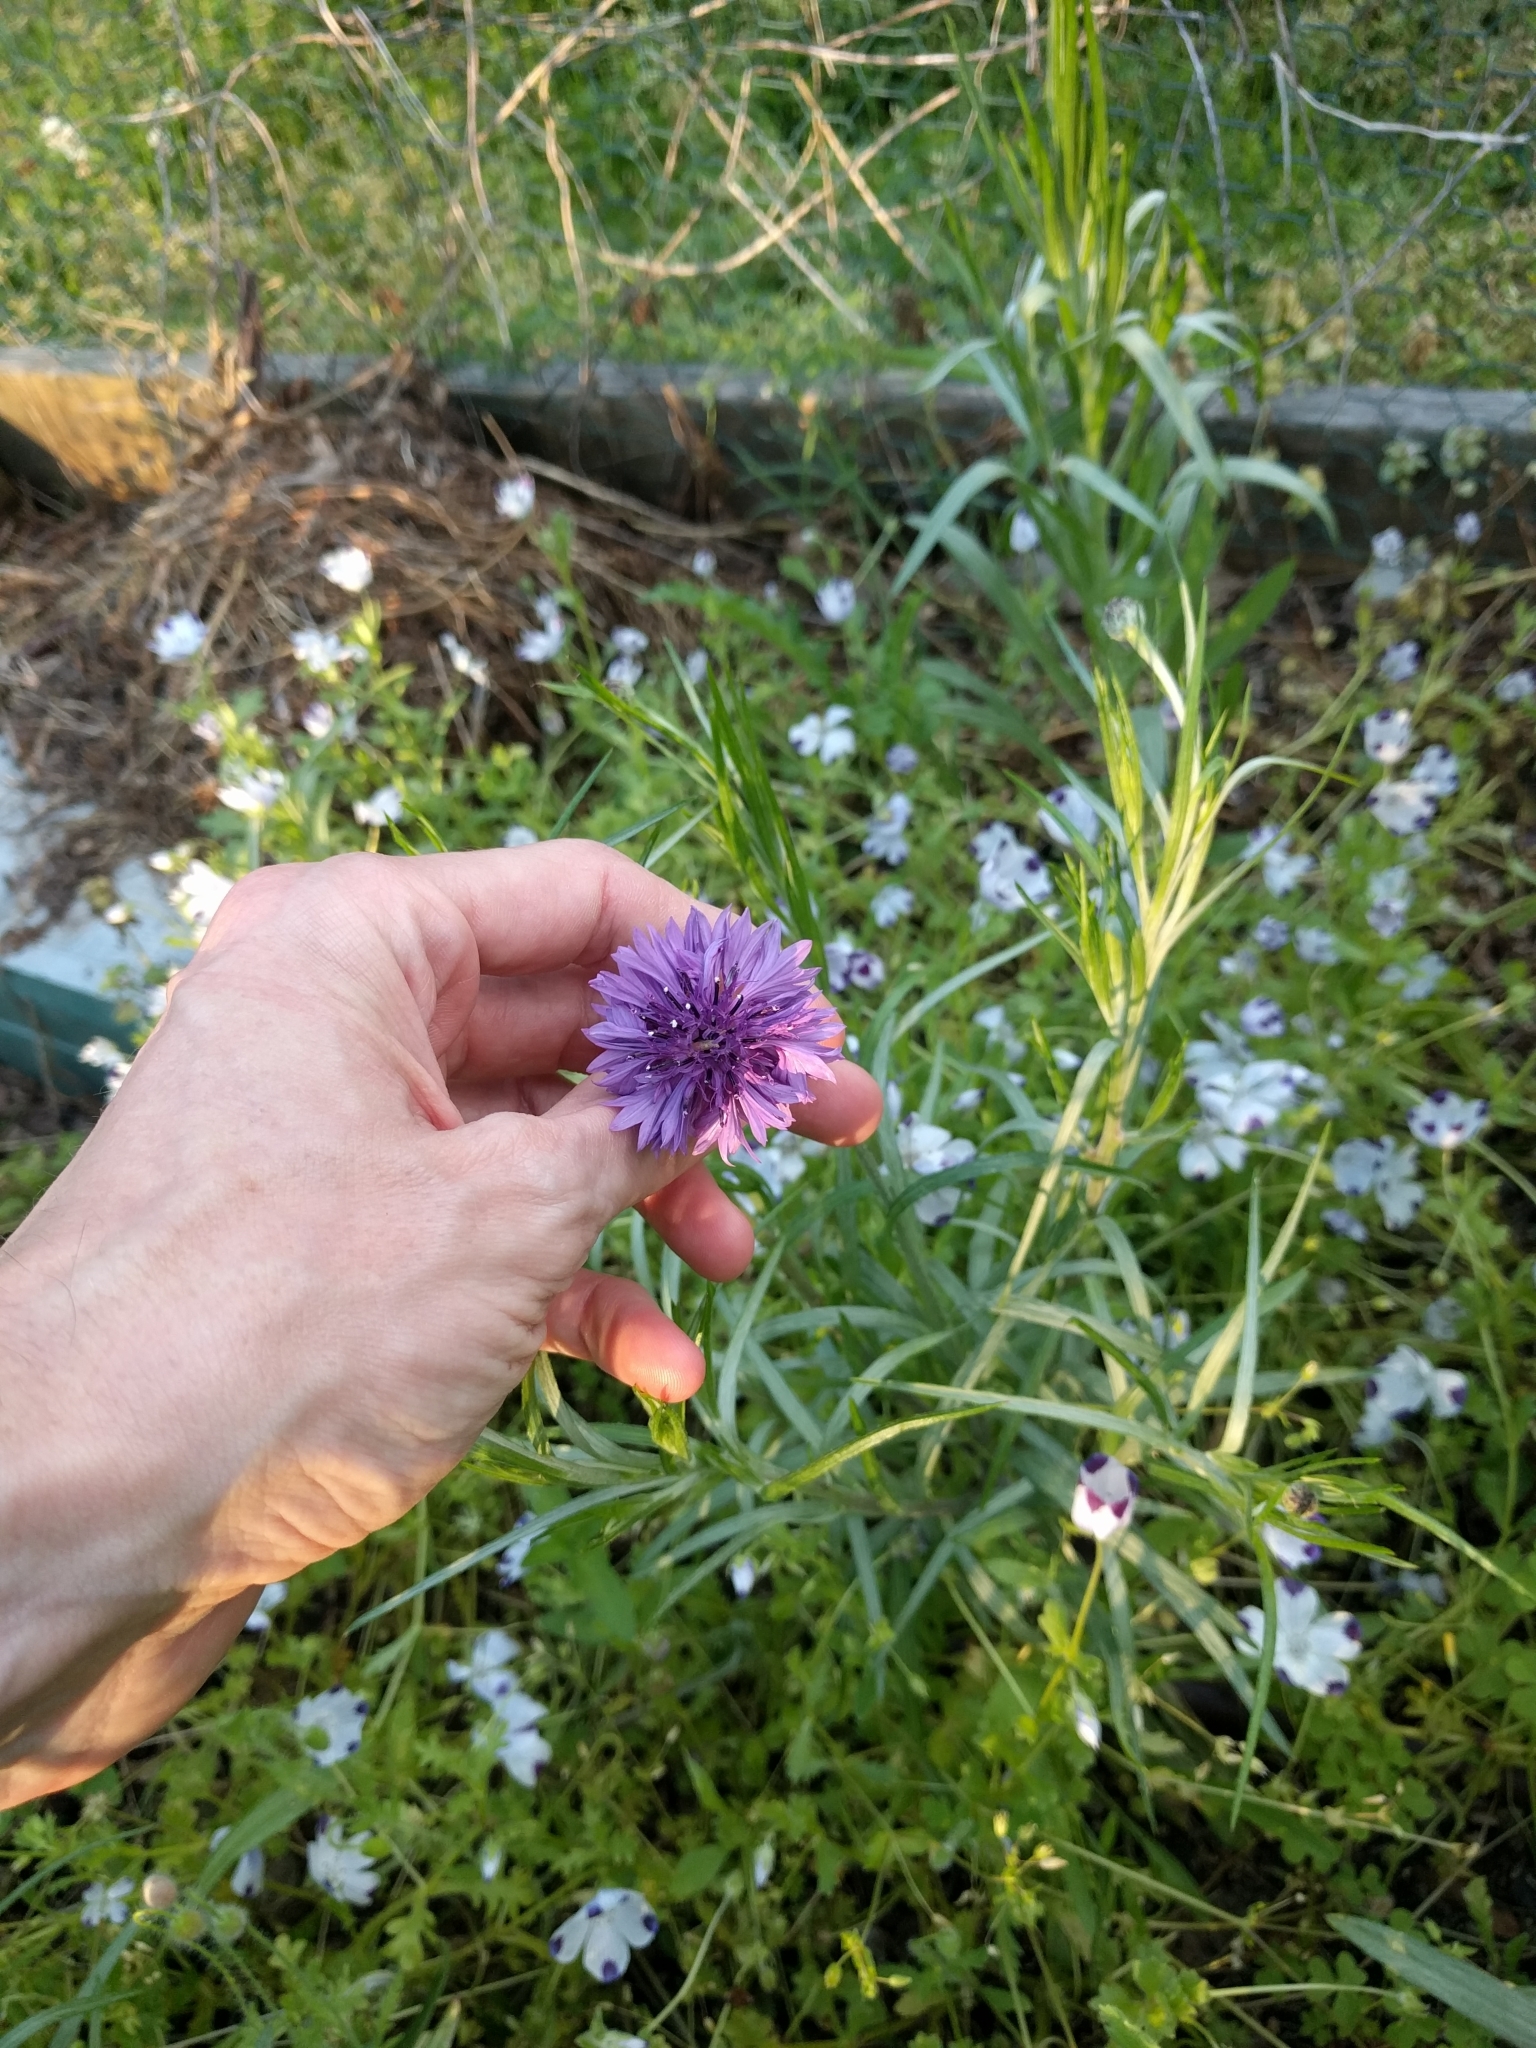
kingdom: Plantae
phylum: Tracheophyta
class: Magnoliopsida
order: Asterales
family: Asteraceae
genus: Centaurea
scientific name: Centaurea cyanus
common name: Cornflower
